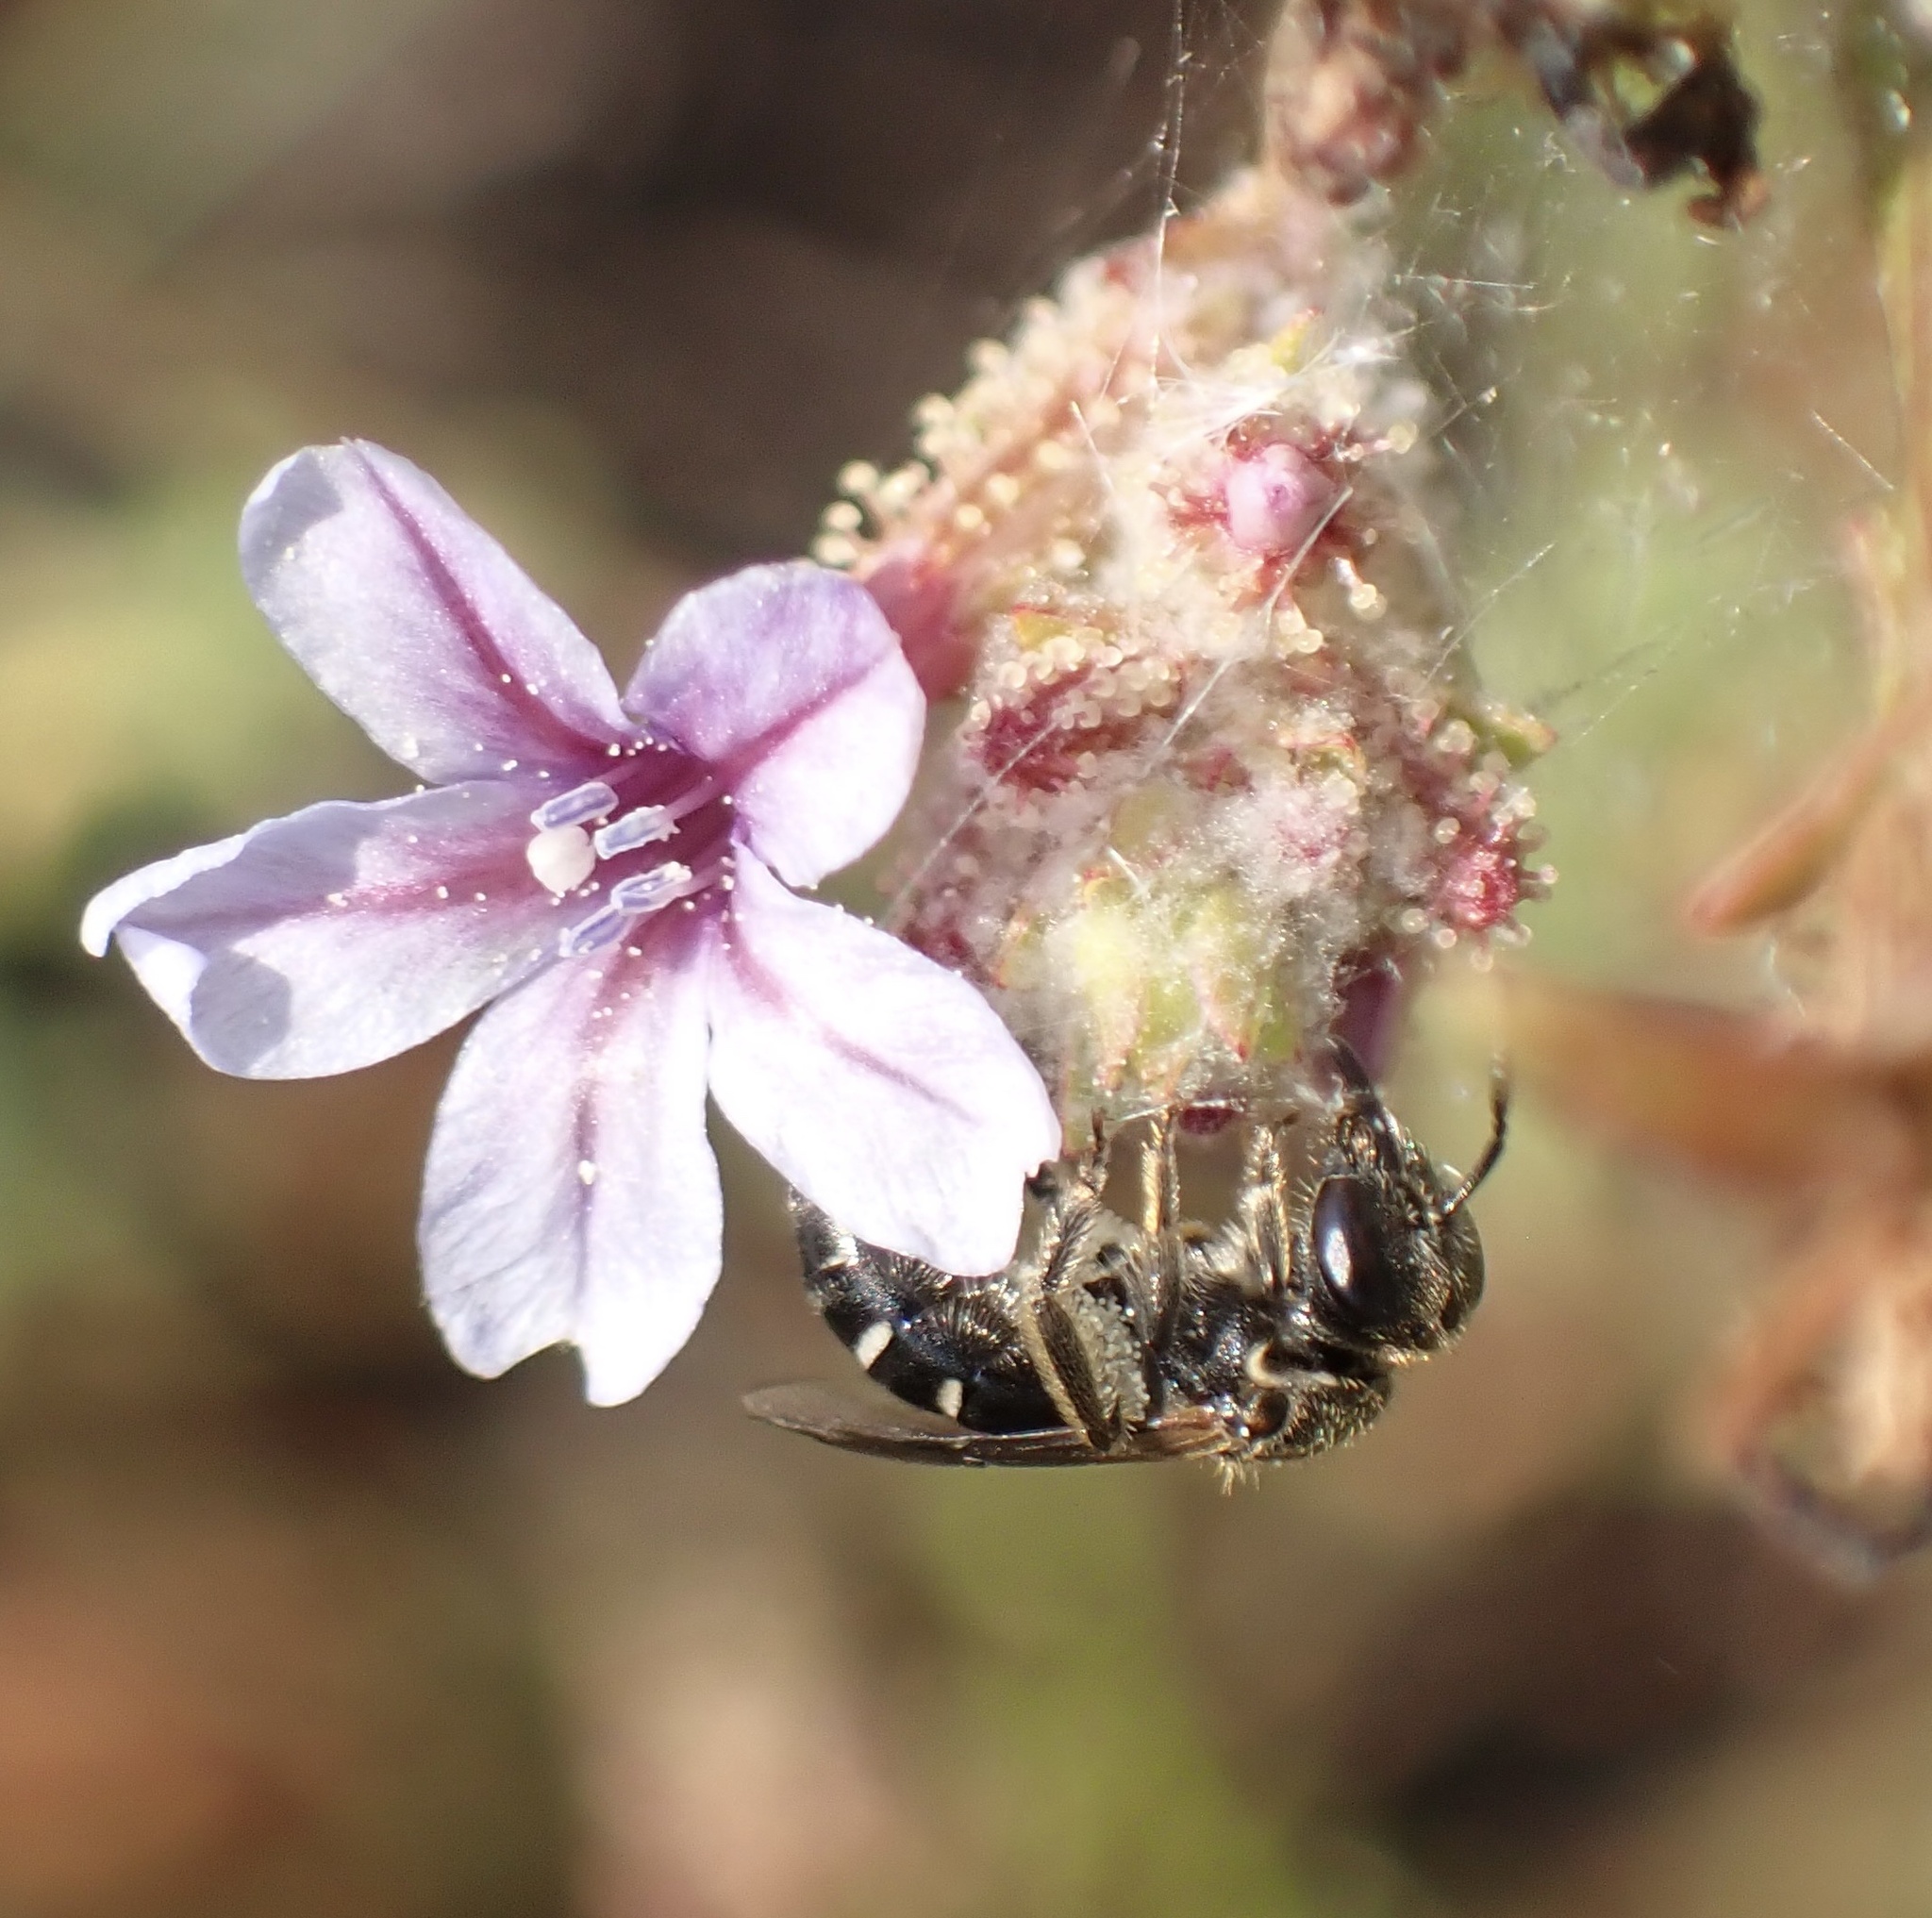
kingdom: Plantae
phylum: Tracheophyta
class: Magnoliopsida
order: Caryophyllales
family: Plumbaginaceae
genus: Plumbago
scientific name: Plumbago europaea
